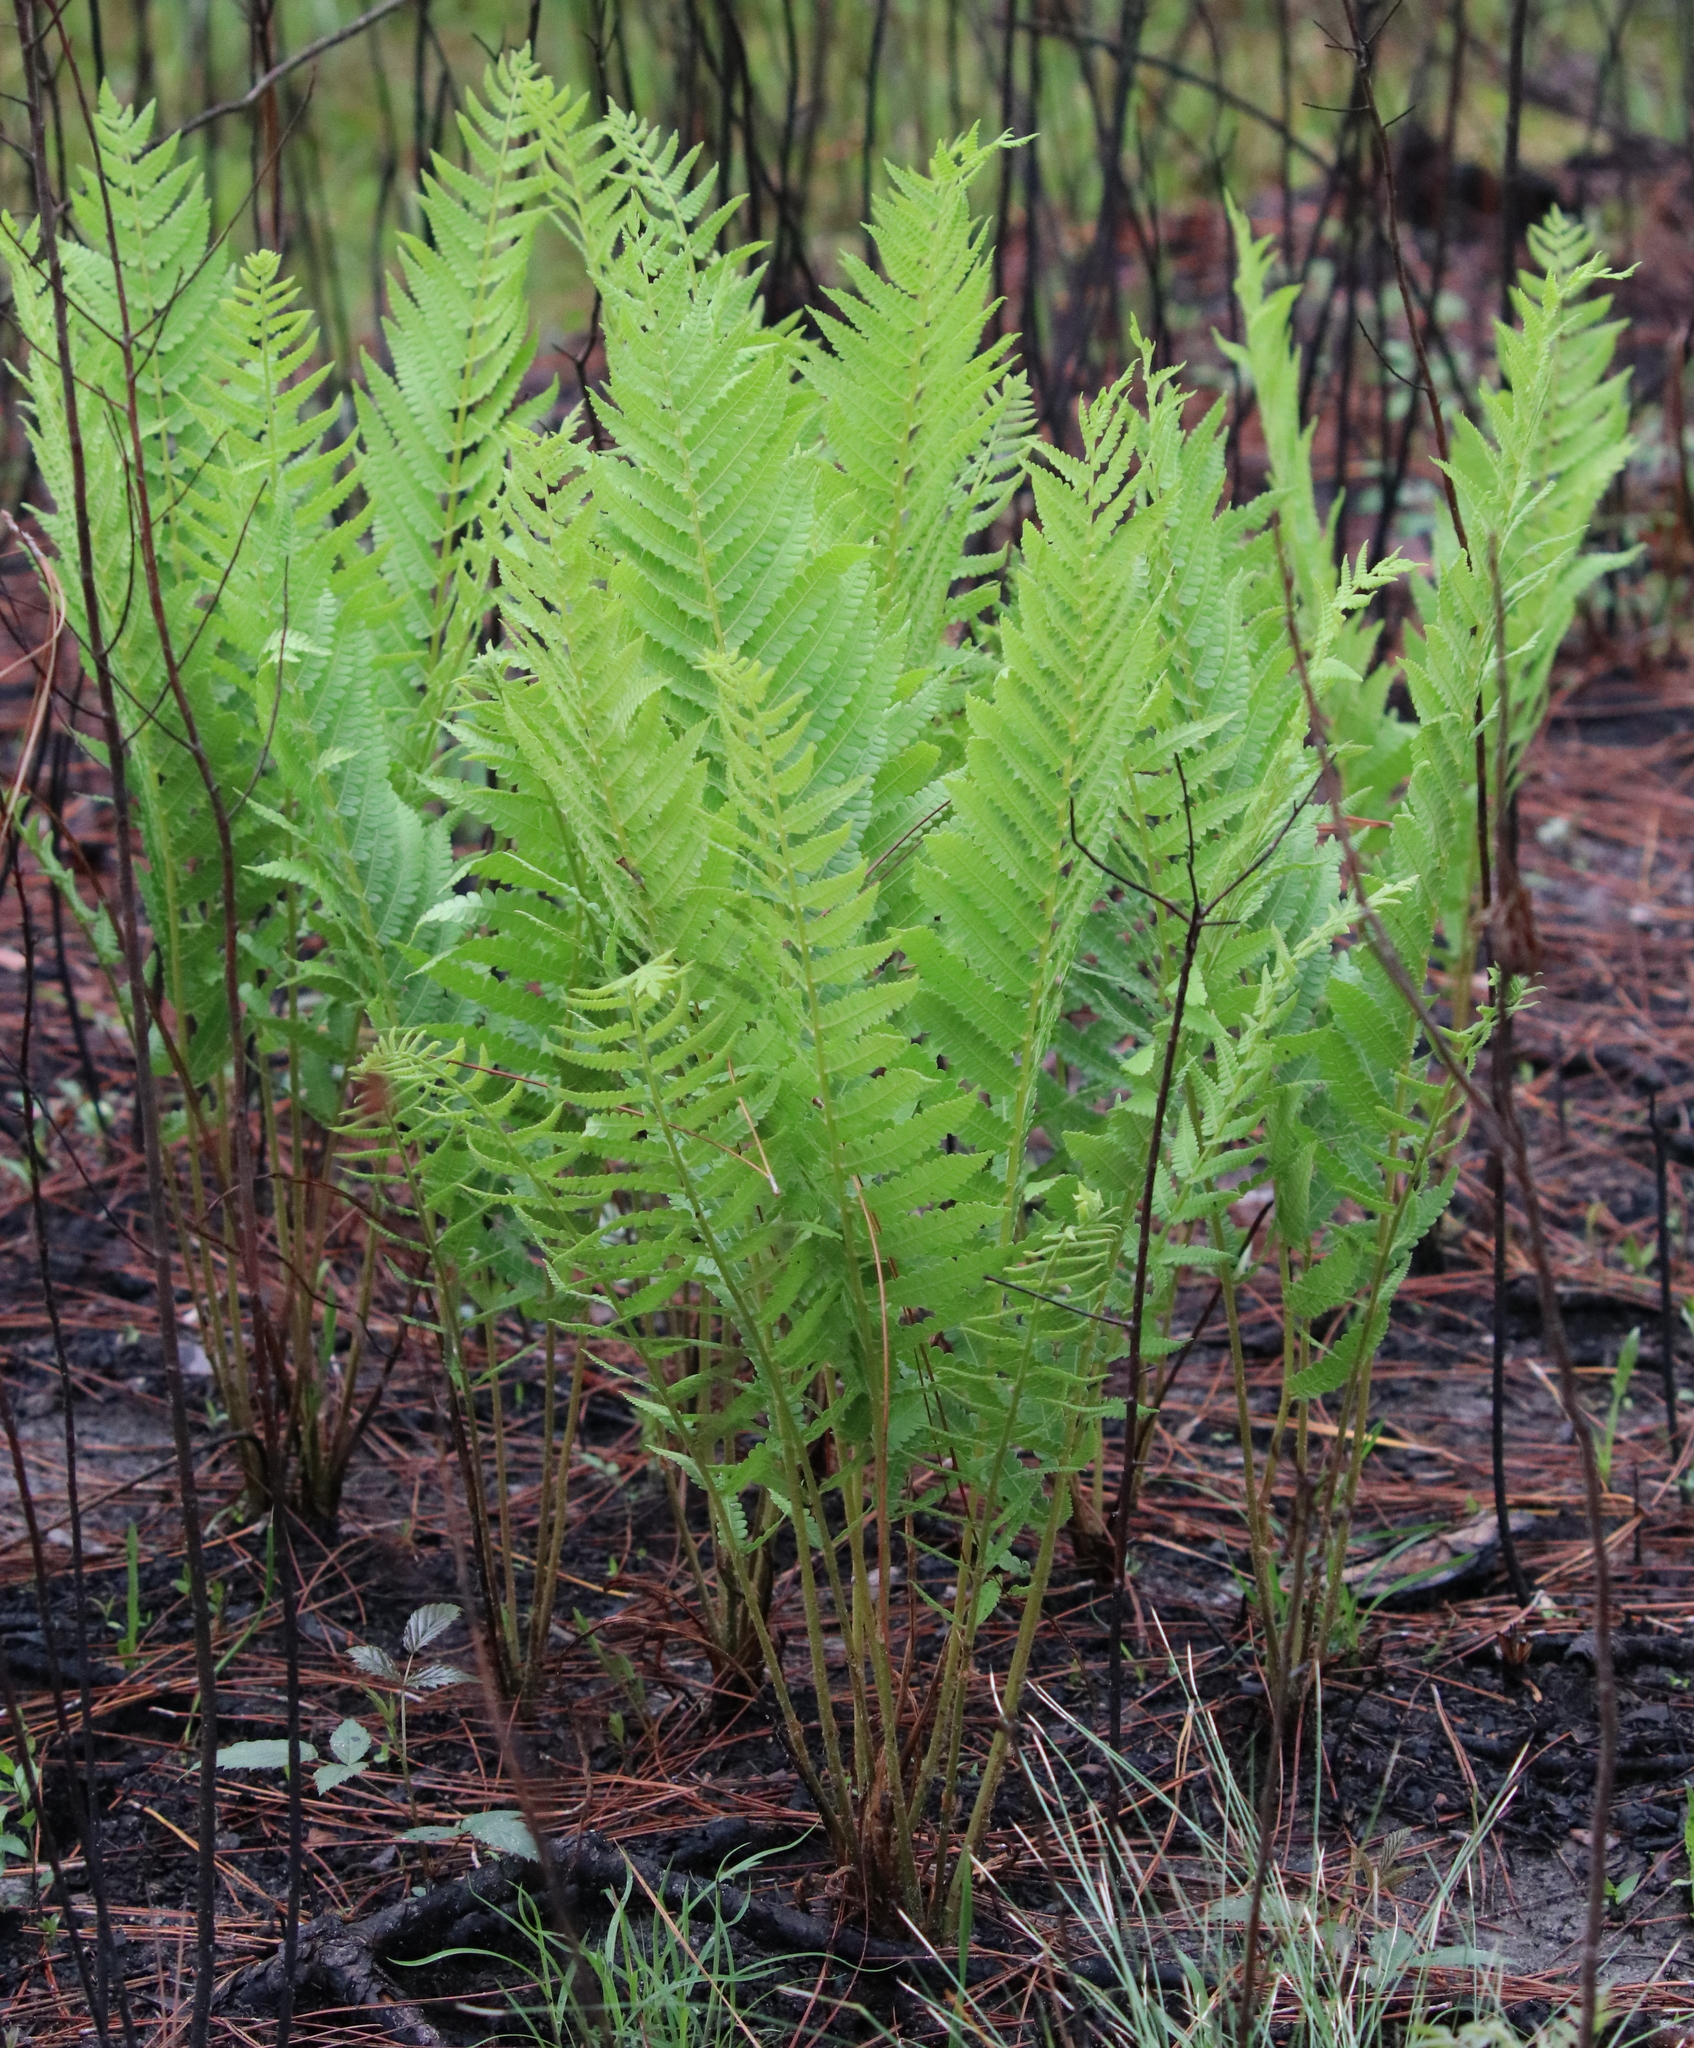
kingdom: Plantae
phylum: Tracheophyta
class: Polypodiopsida
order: Osmundales
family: Osmundaceae
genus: Osmundastrum
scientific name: Osmundastrum cinnamomeum
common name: Cinnamon fern
